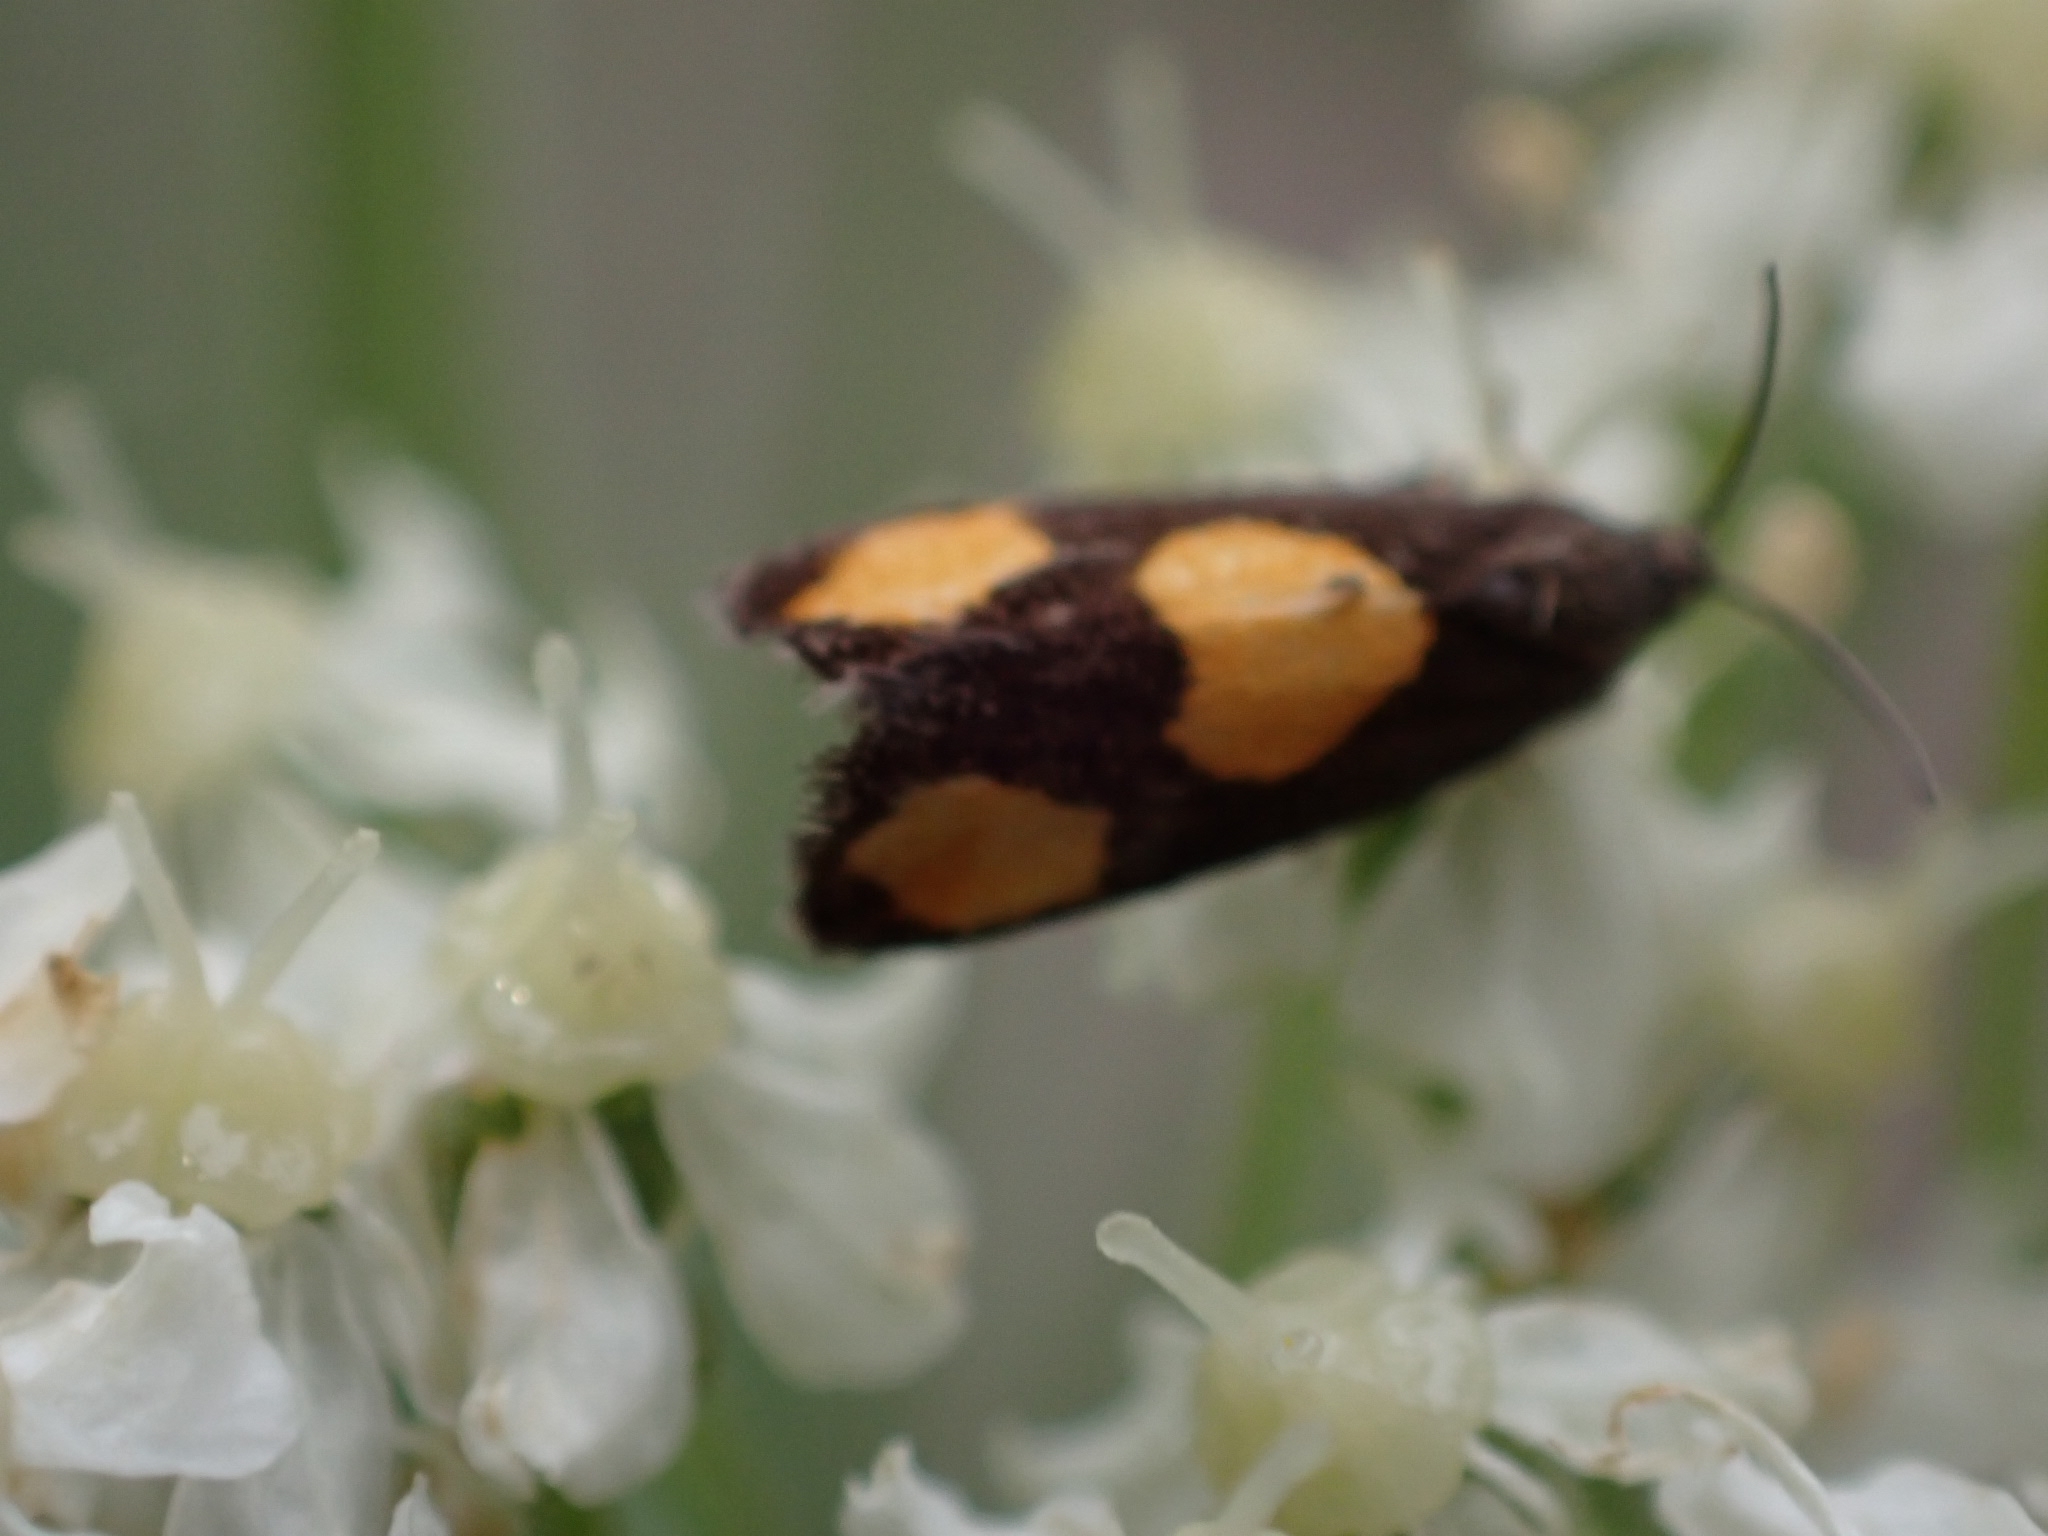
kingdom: Animalia
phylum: Arthropoda
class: Insecta
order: Lepidoptera
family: Tortricidae
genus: Pammene
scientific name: Pammene aurana
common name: Orange-spot piercer
